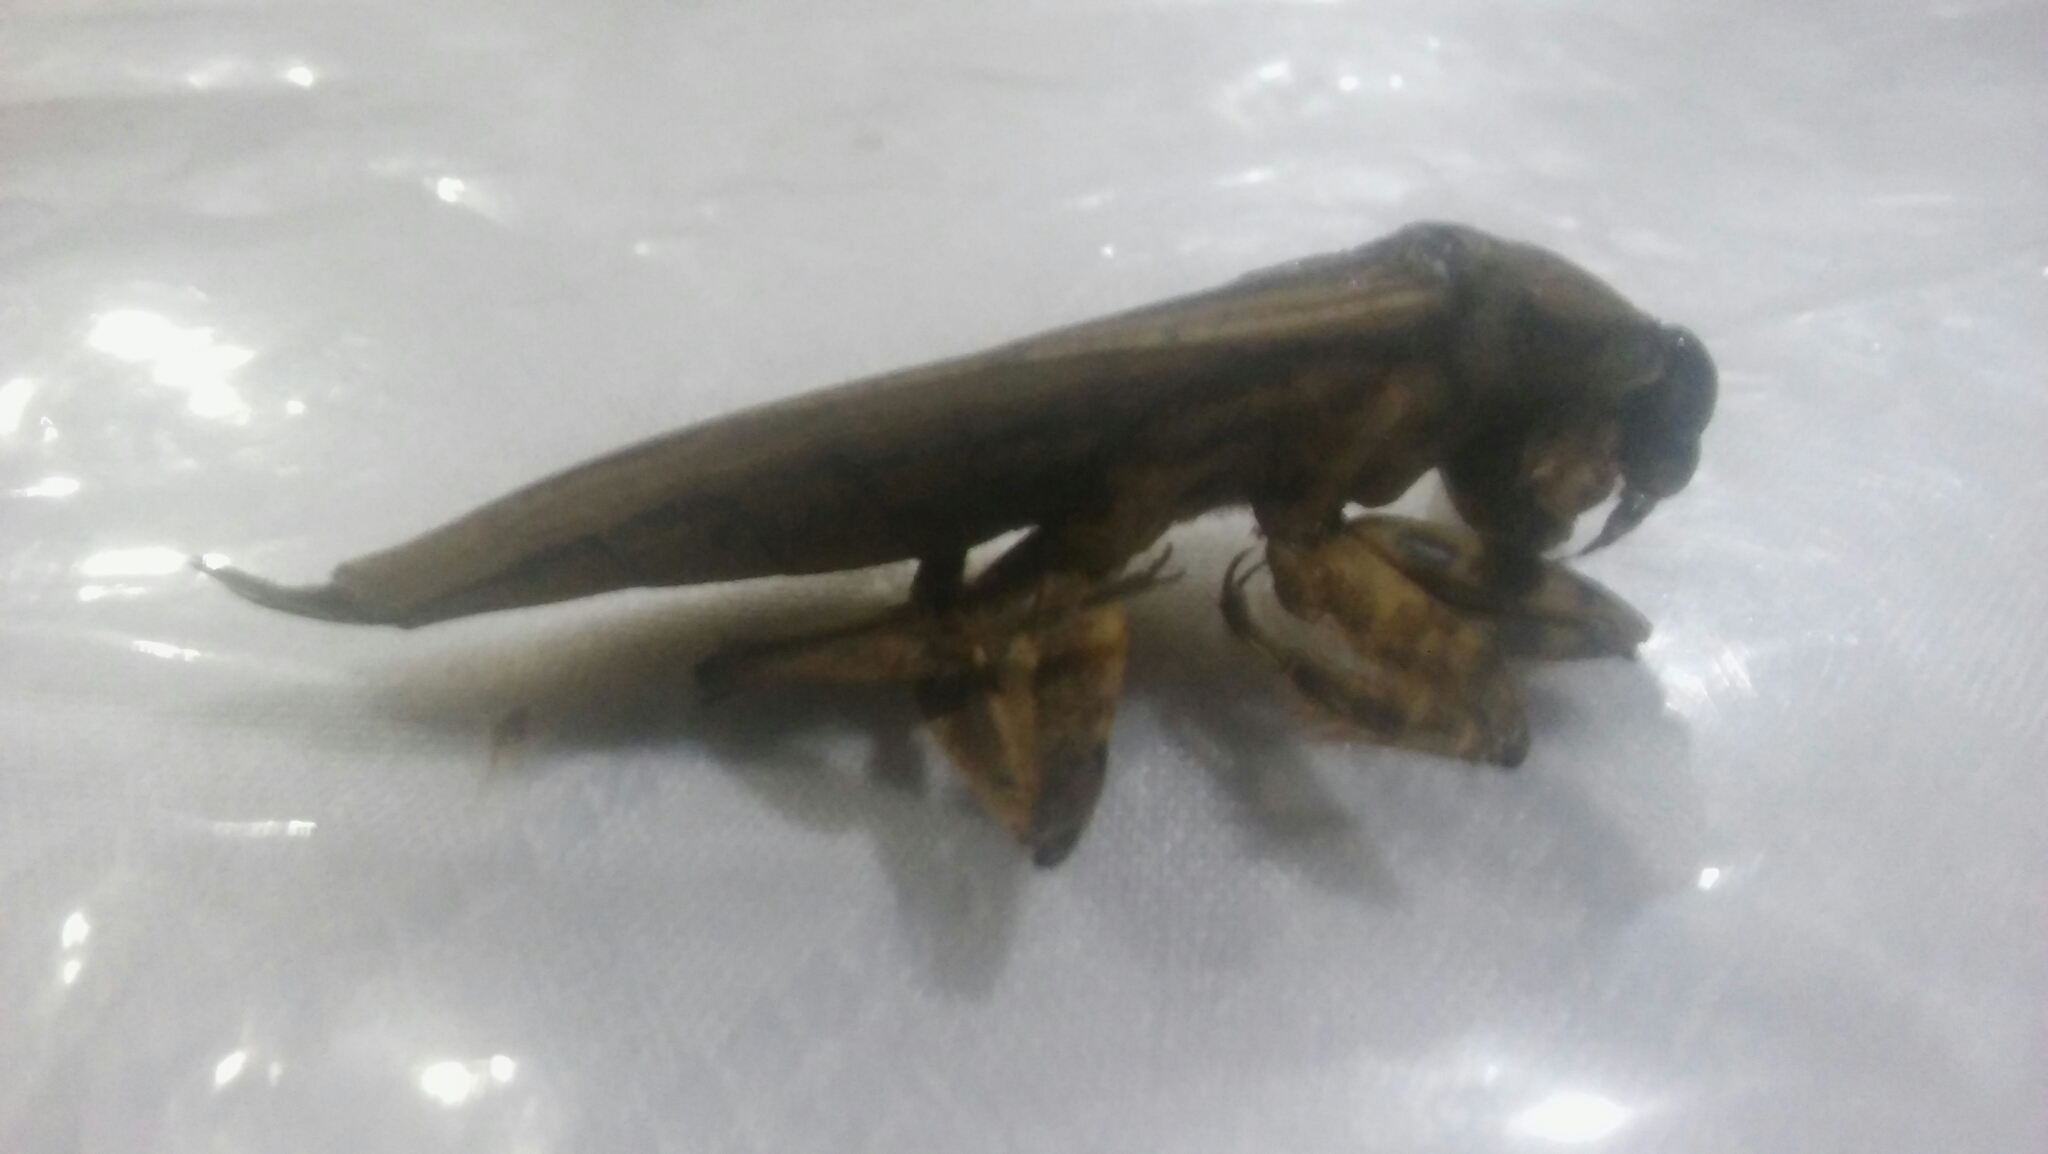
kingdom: Animalia
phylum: Arthropoda
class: Insecta
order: Hemiptera
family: Belostomatidae
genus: Lethocerus
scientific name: Lethocerus annulipes
